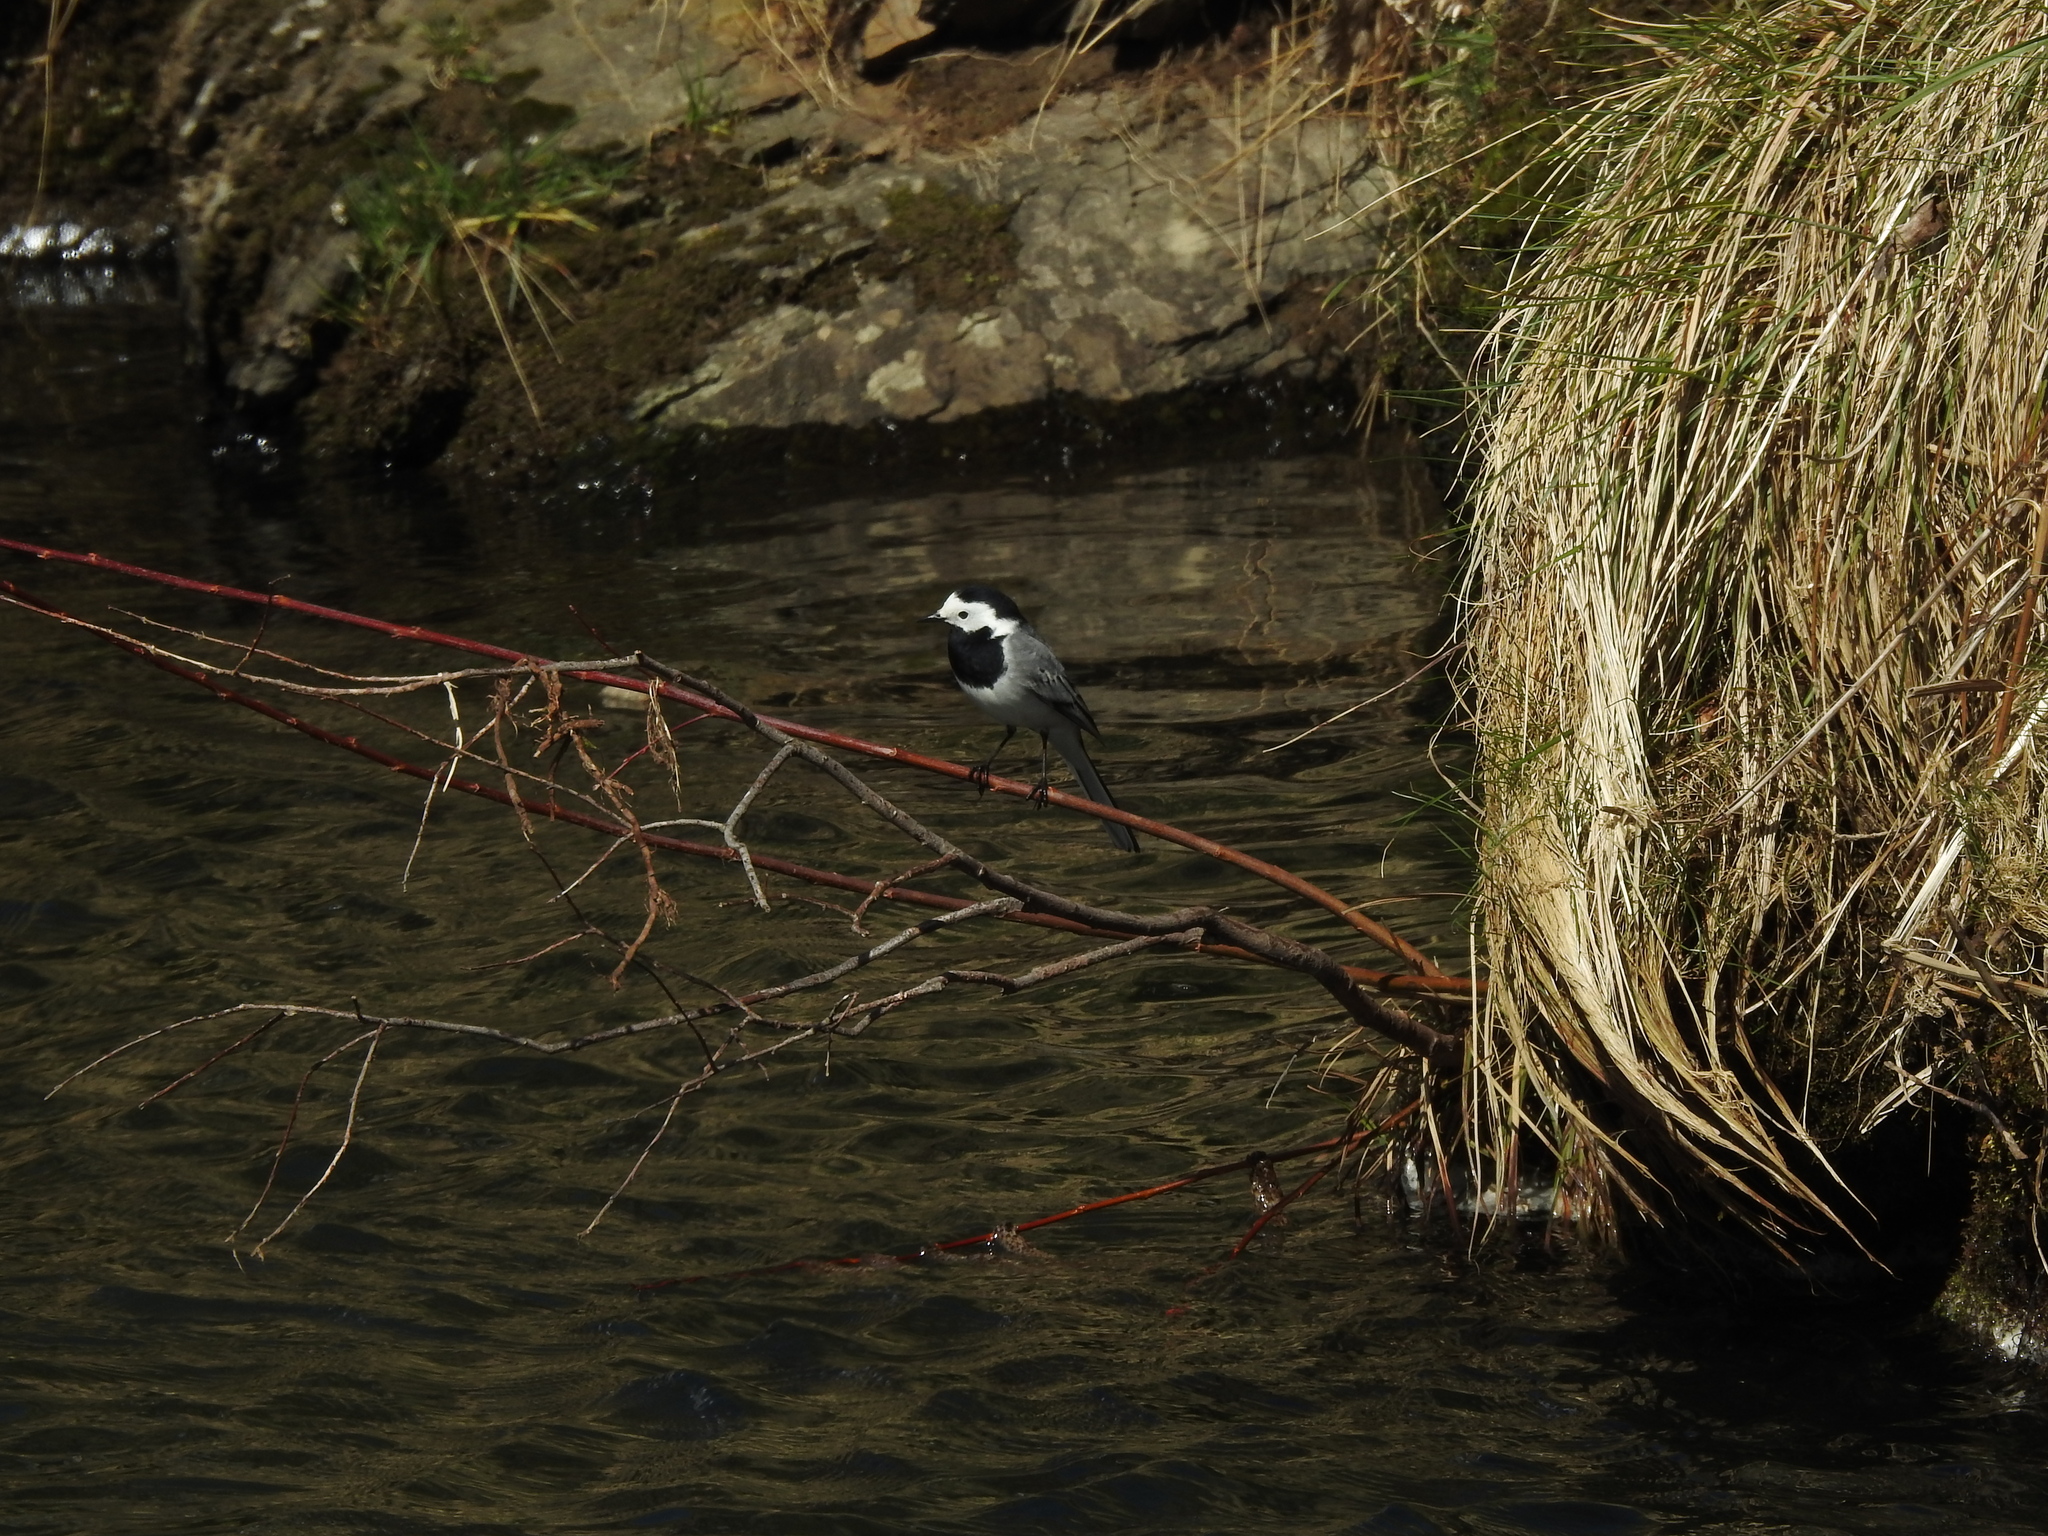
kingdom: Animalia
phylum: Chordata
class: Aves
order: Passeriformes
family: Motacillidae
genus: Motacilla
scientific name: Motacilla alba
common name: White wagtail
